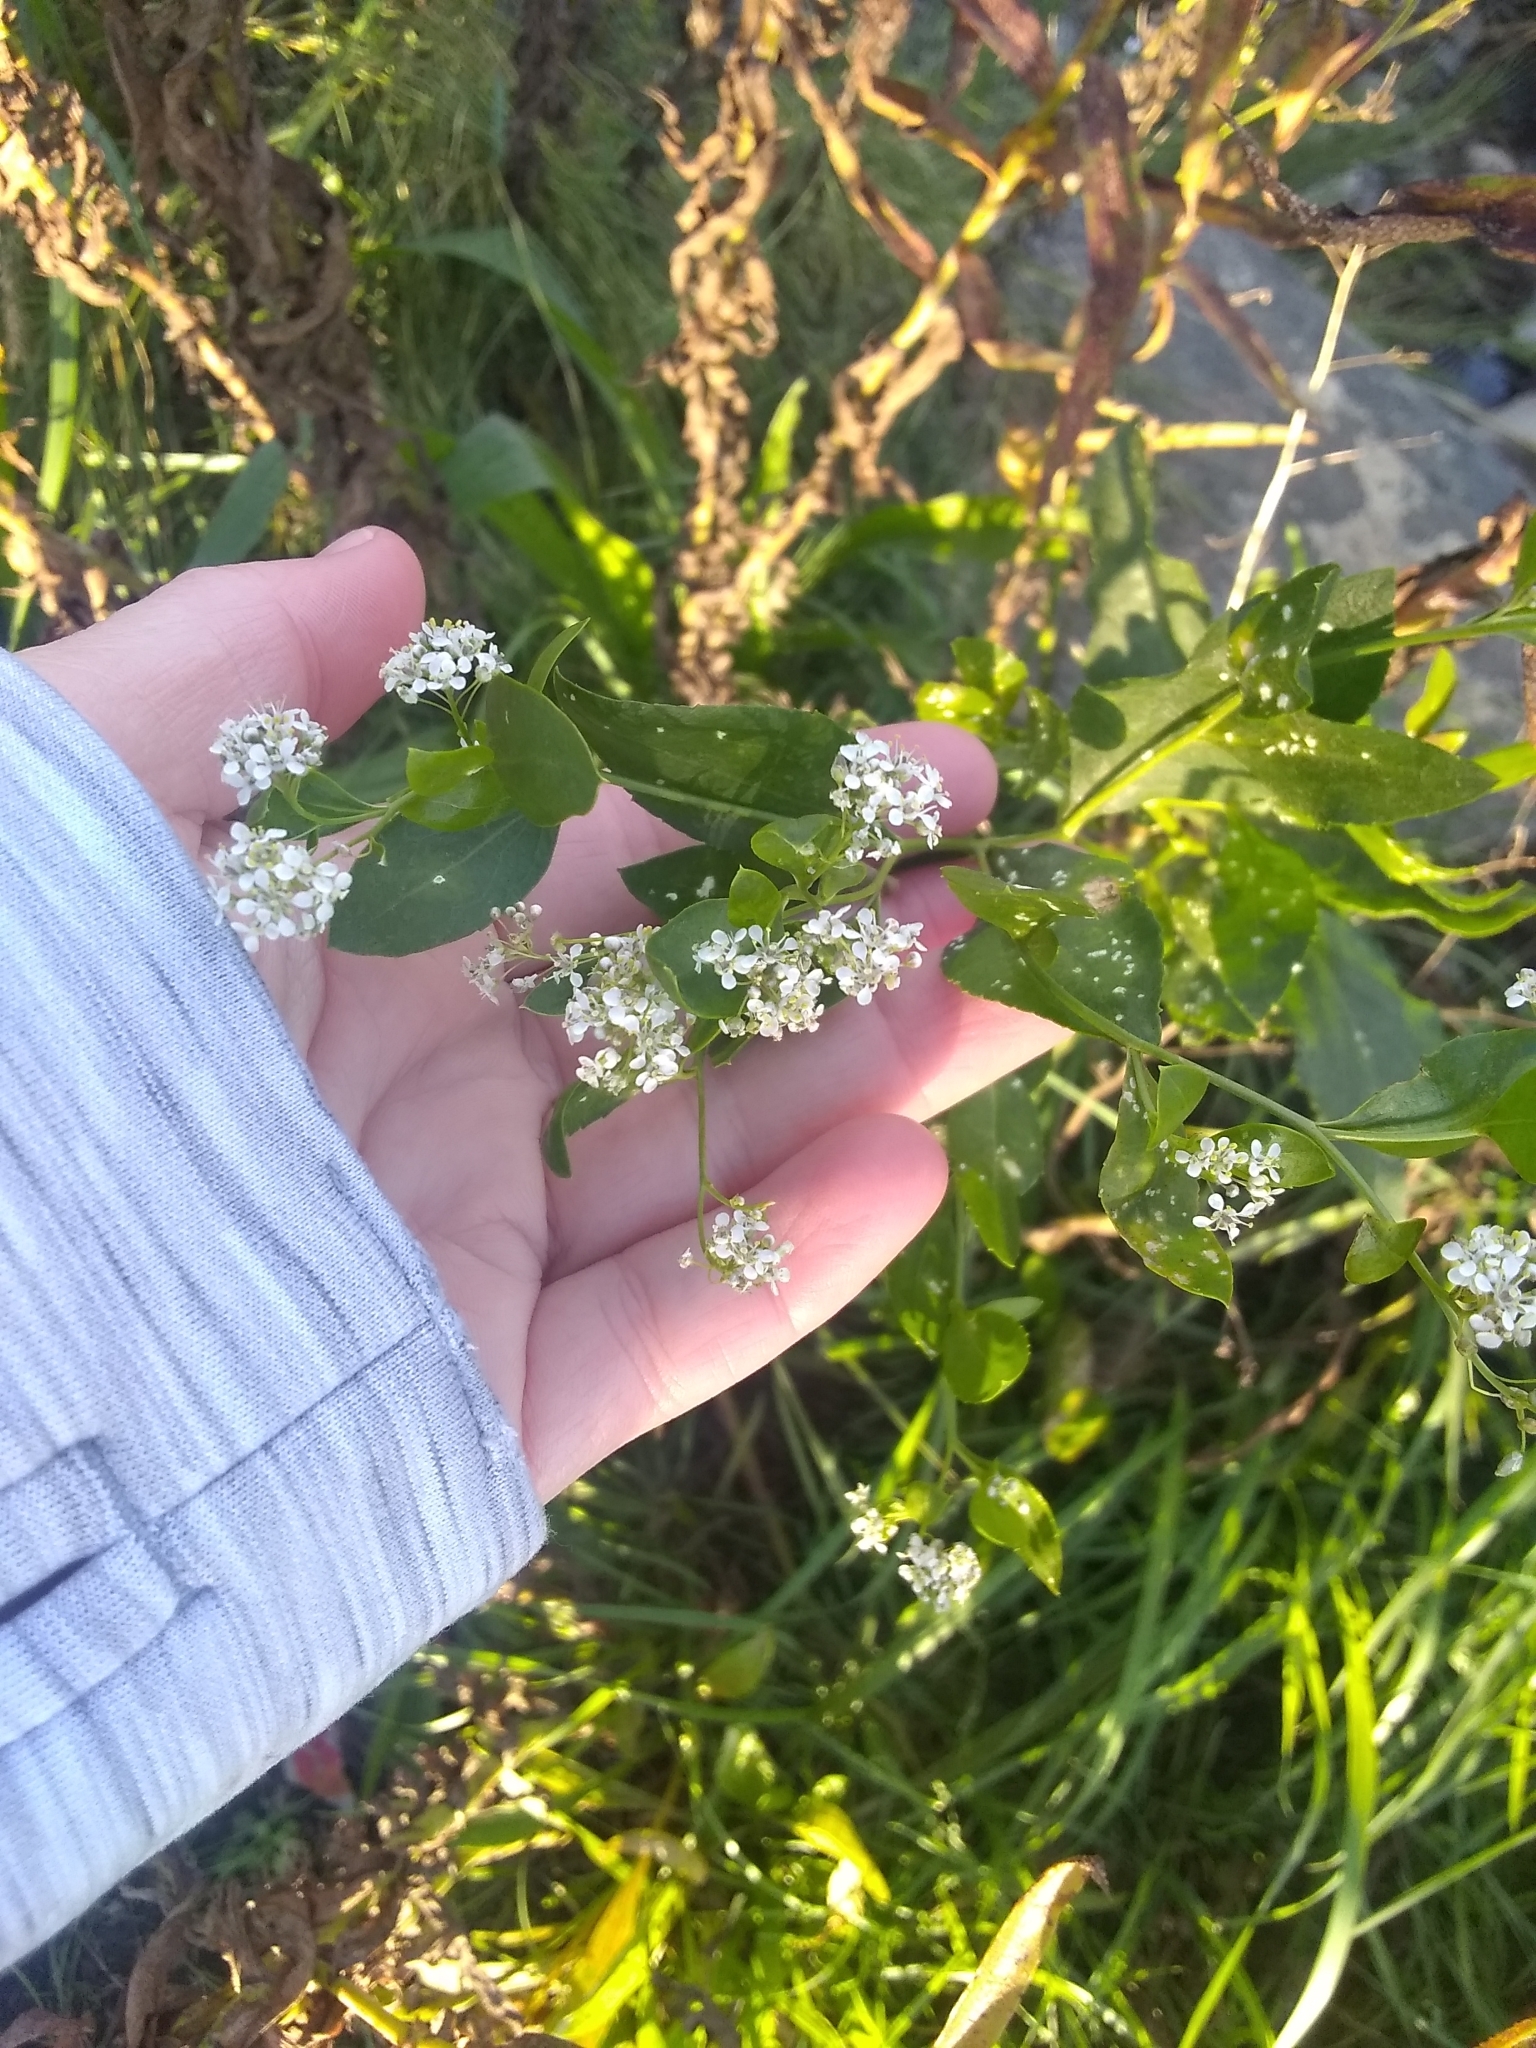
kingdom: Plantae
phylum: Tracheophyta
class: Magnoliopsida
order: Brassicales
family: Brassicaceae
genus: Lepidium
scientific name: Lepidium latifolium
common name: Dittander
